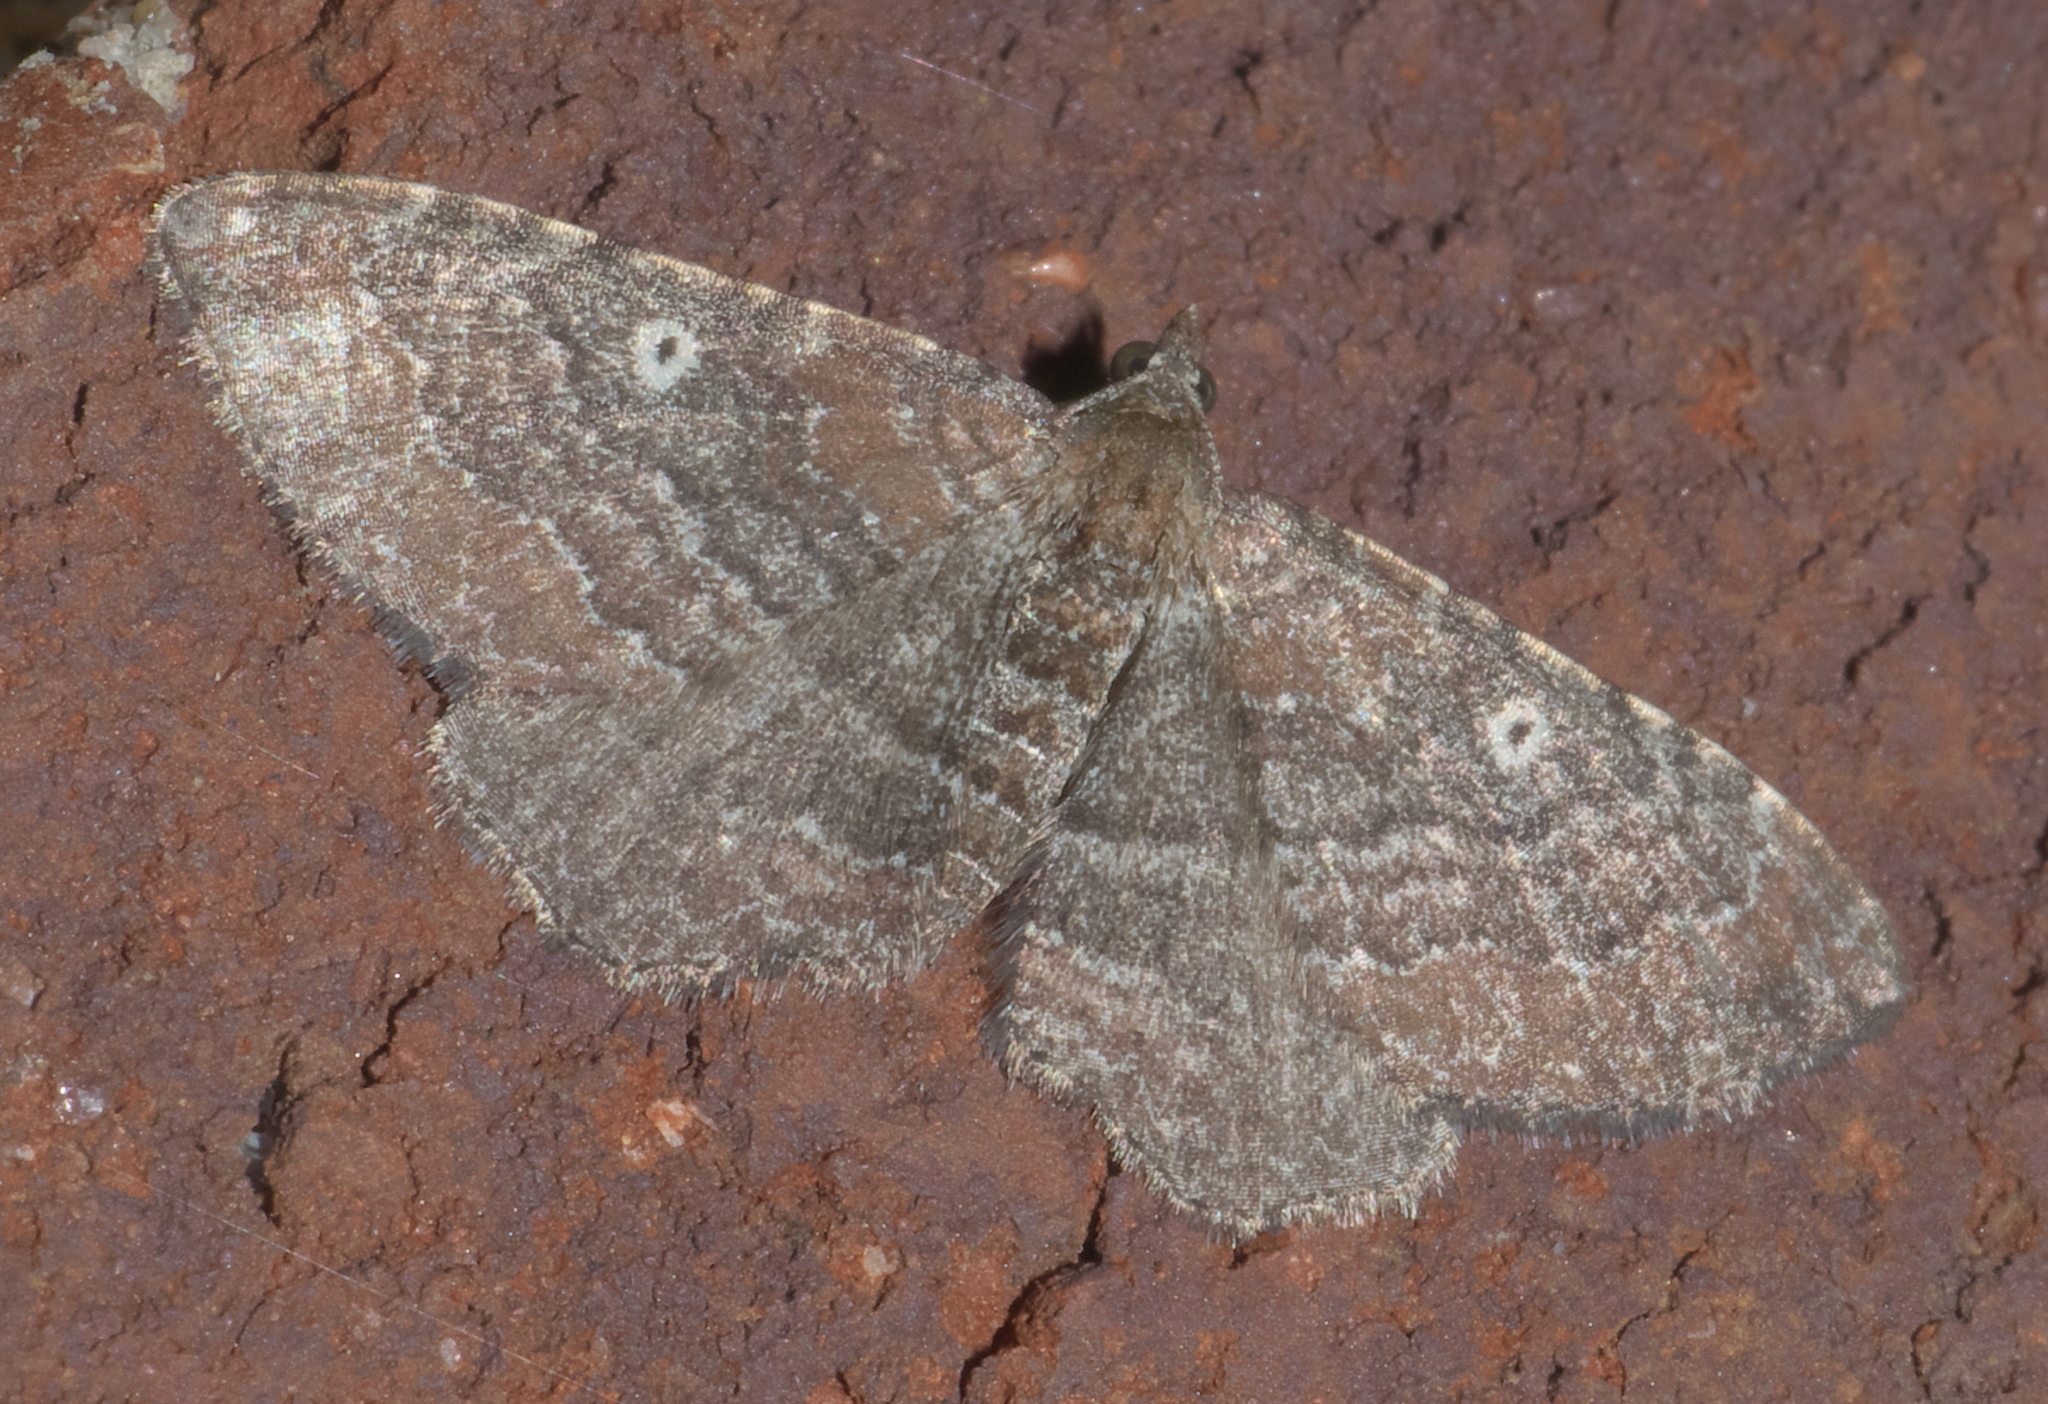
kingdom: Animalia
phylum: Arthropoda
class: Insecta
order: Lepidoptera
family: Geometridae
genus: Orthonama
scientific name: Orthonama obstipata
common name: The gem
